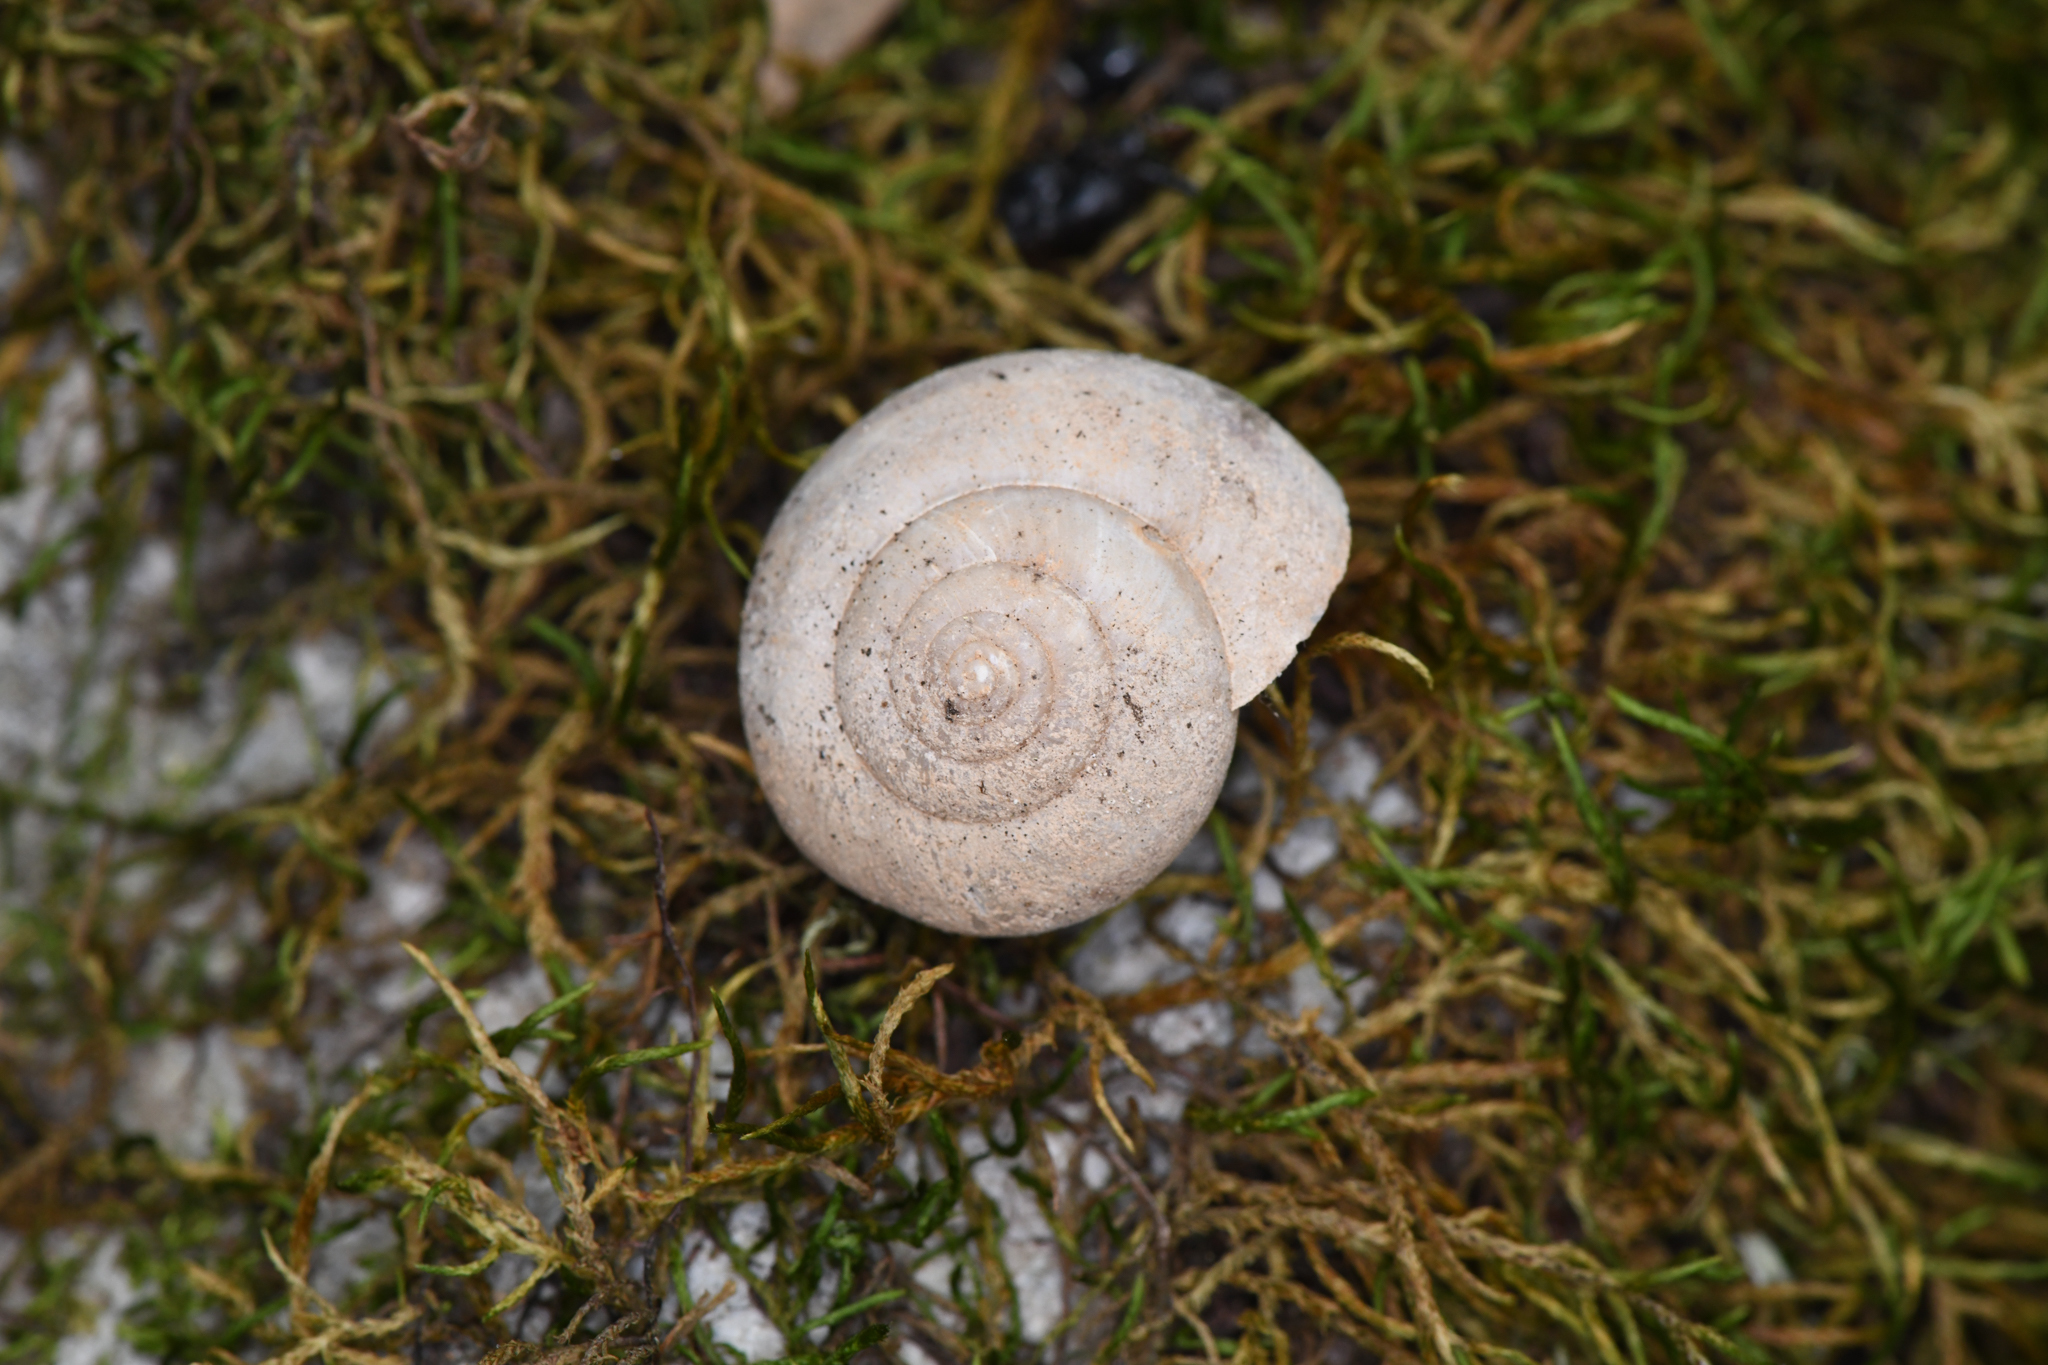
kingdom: Animalia
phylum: Mollusca
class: Gastropoda
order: Stylommatophora
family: Xanthonychidae
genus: Helminthoglypta
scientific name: Helminthoglypta cypreophila
